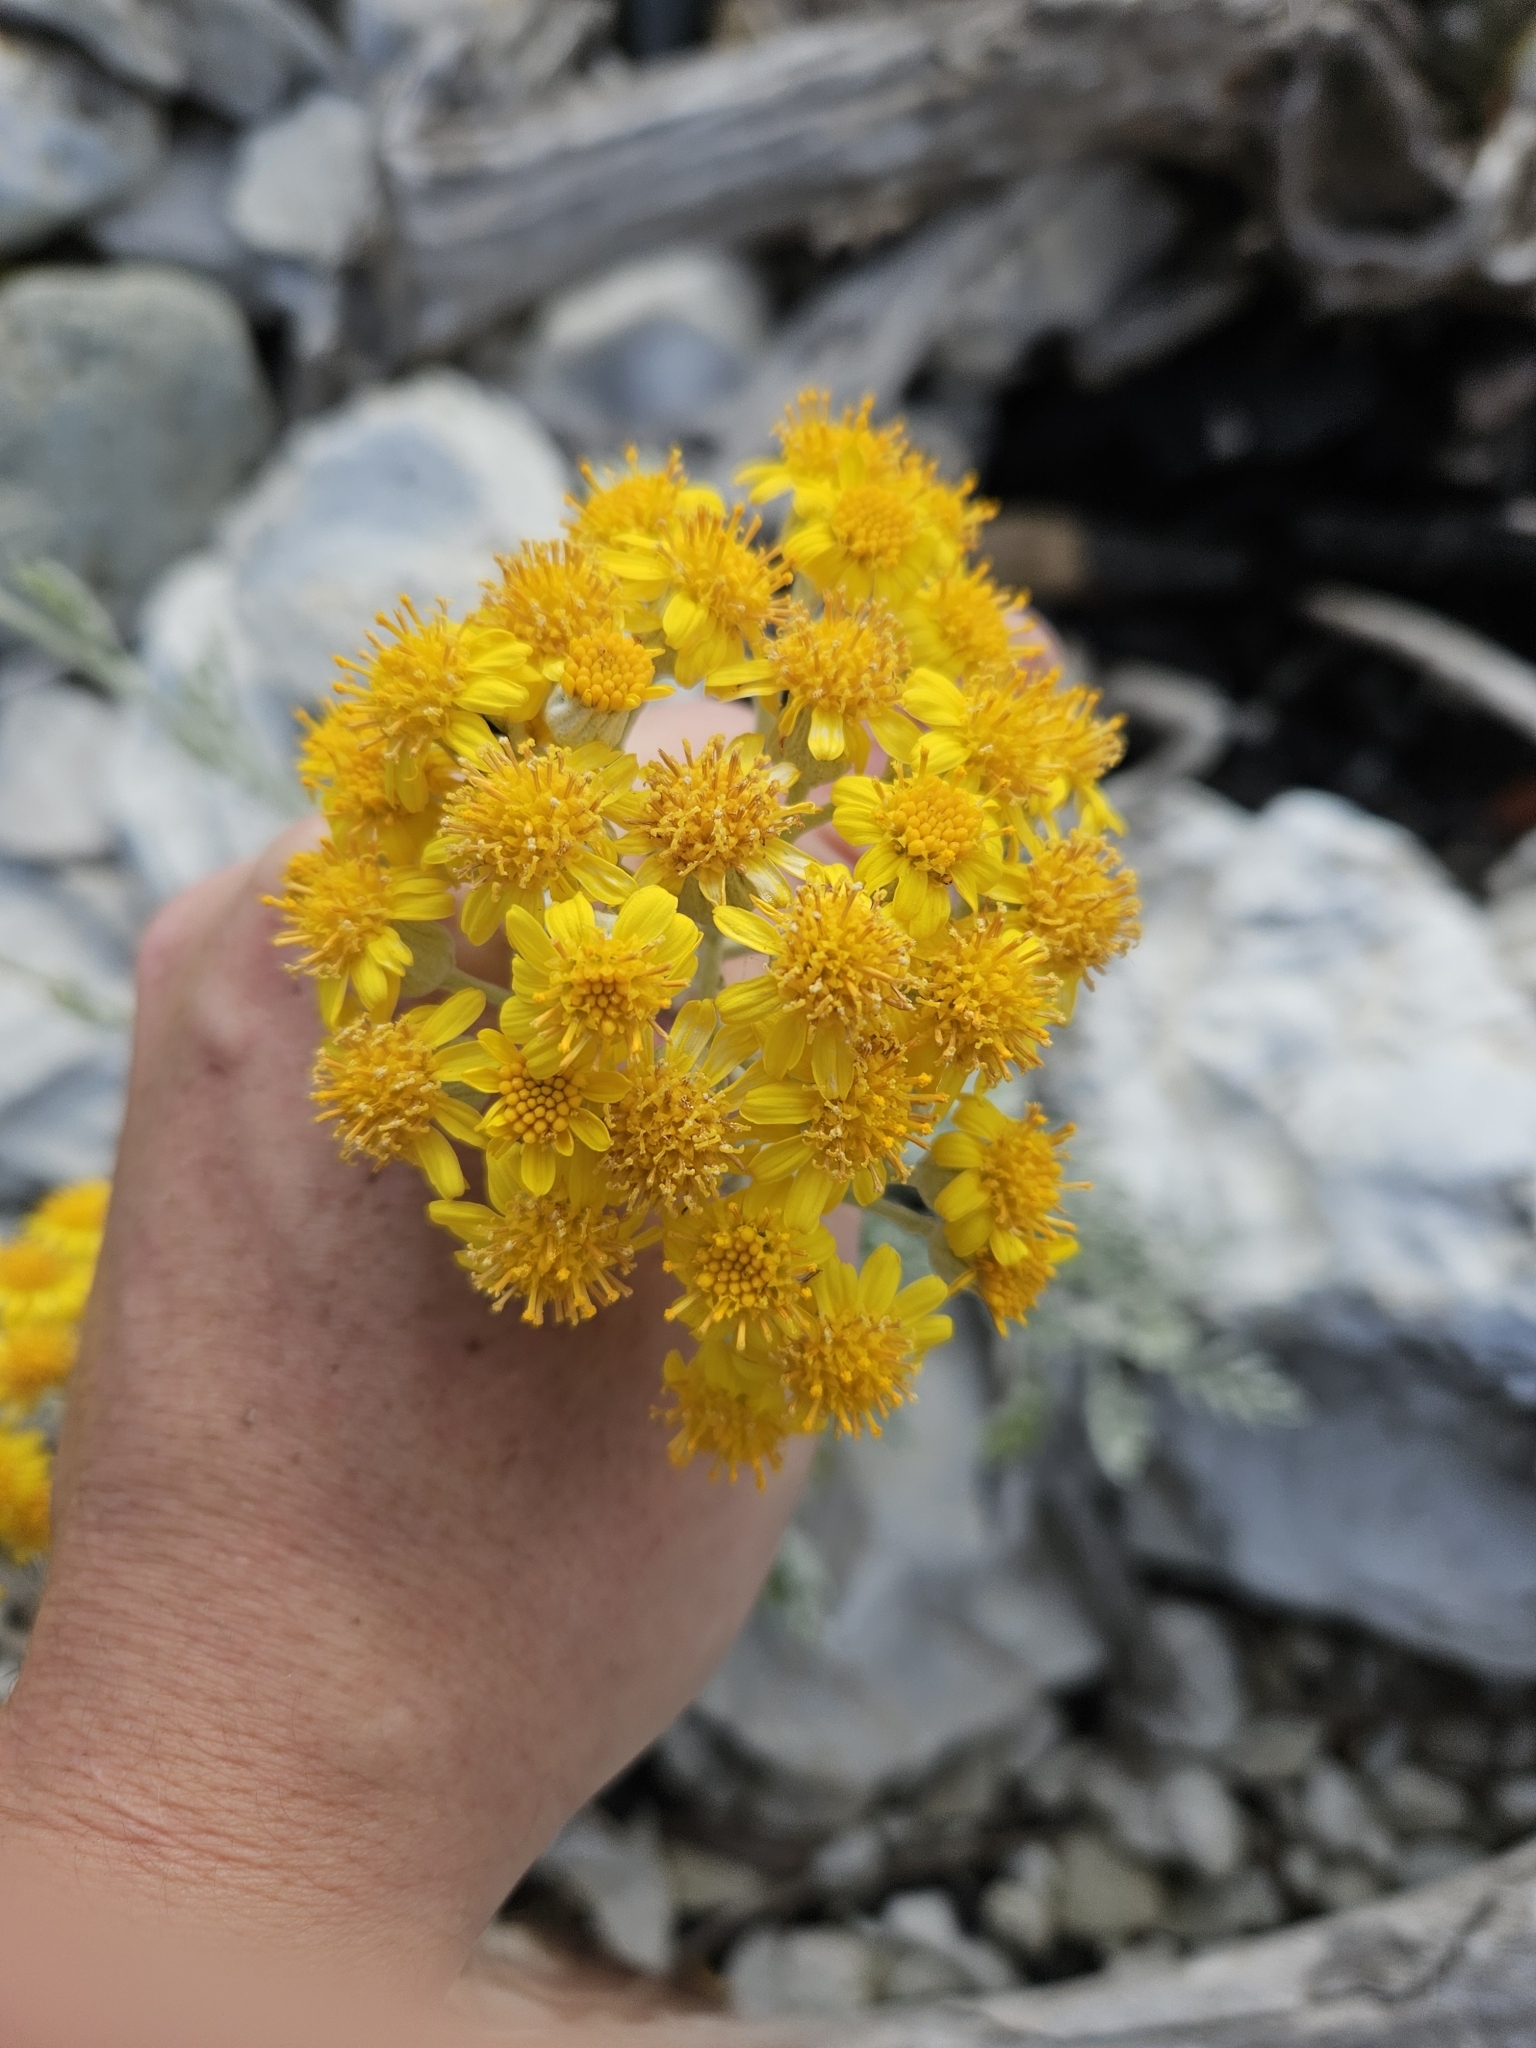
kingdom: Plantae
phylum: Tracheophyta
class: Magnoliopsida
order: Asterales
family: Asteraceae
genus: Jacobaea
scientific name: Jacobaea maritima
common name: Silver ragwort
